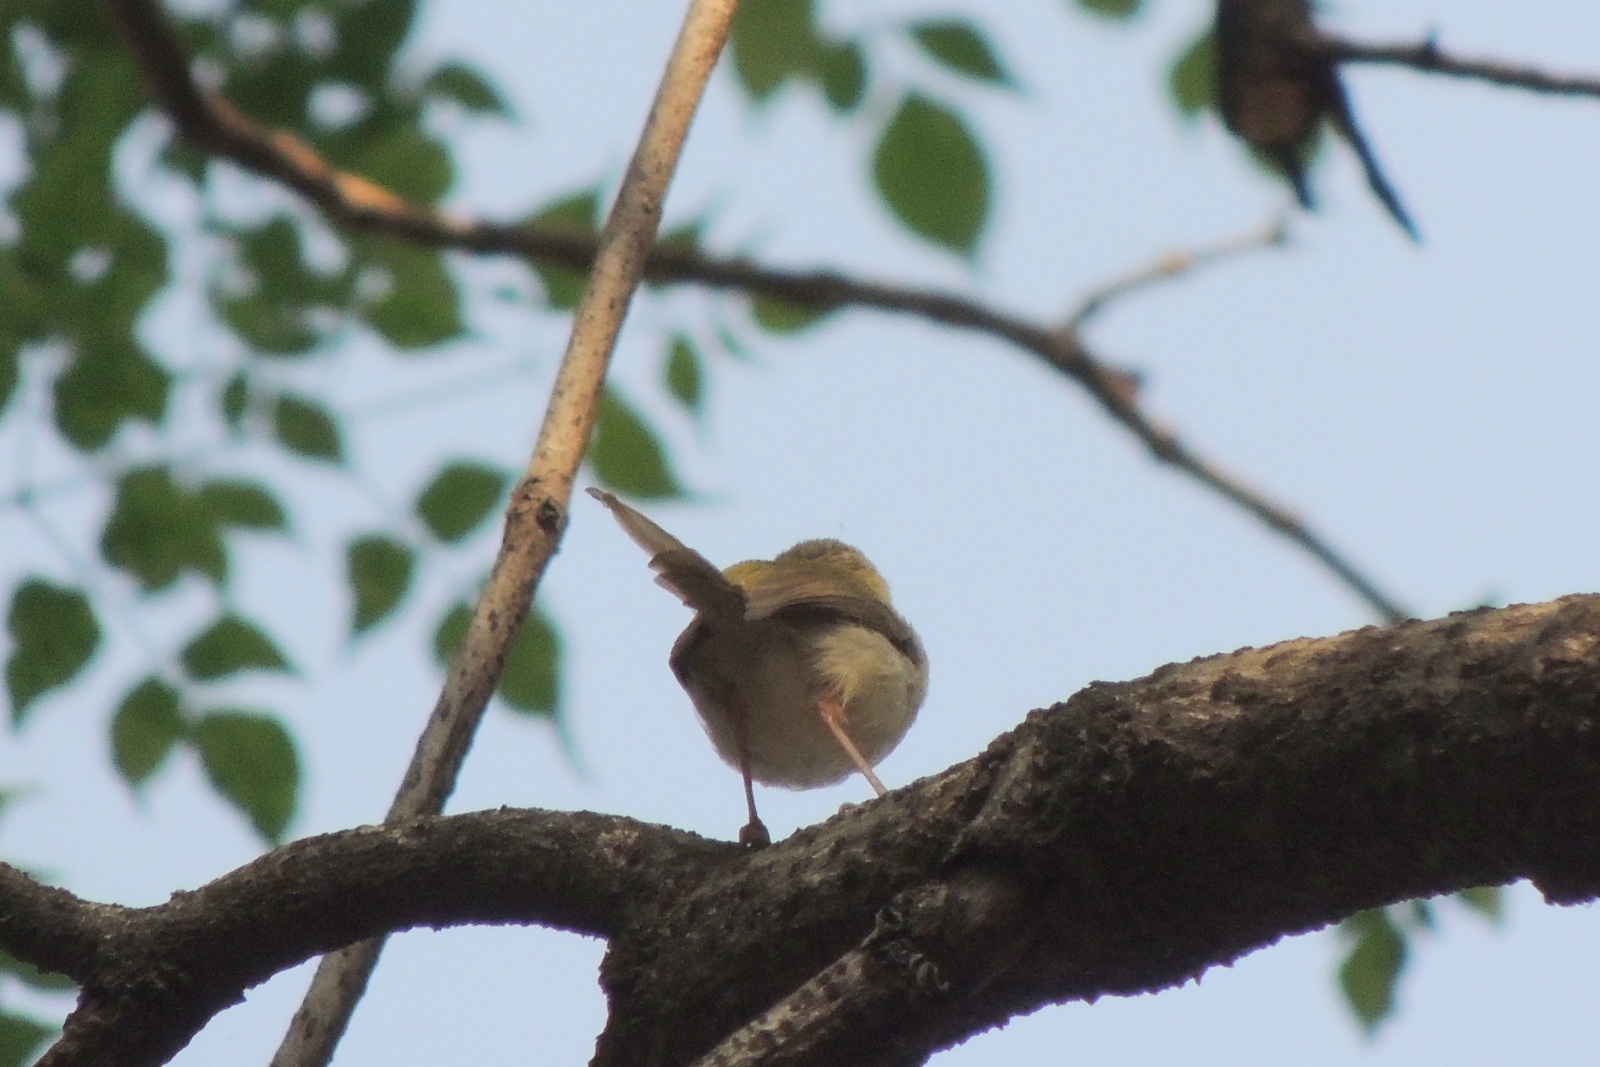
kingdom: Animalia
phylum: Chordata
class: Aves
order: Passeriformes
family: Cisticolidae
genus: Orthotomus
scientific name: Orthotomus sutorius
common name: Common tailorbird
